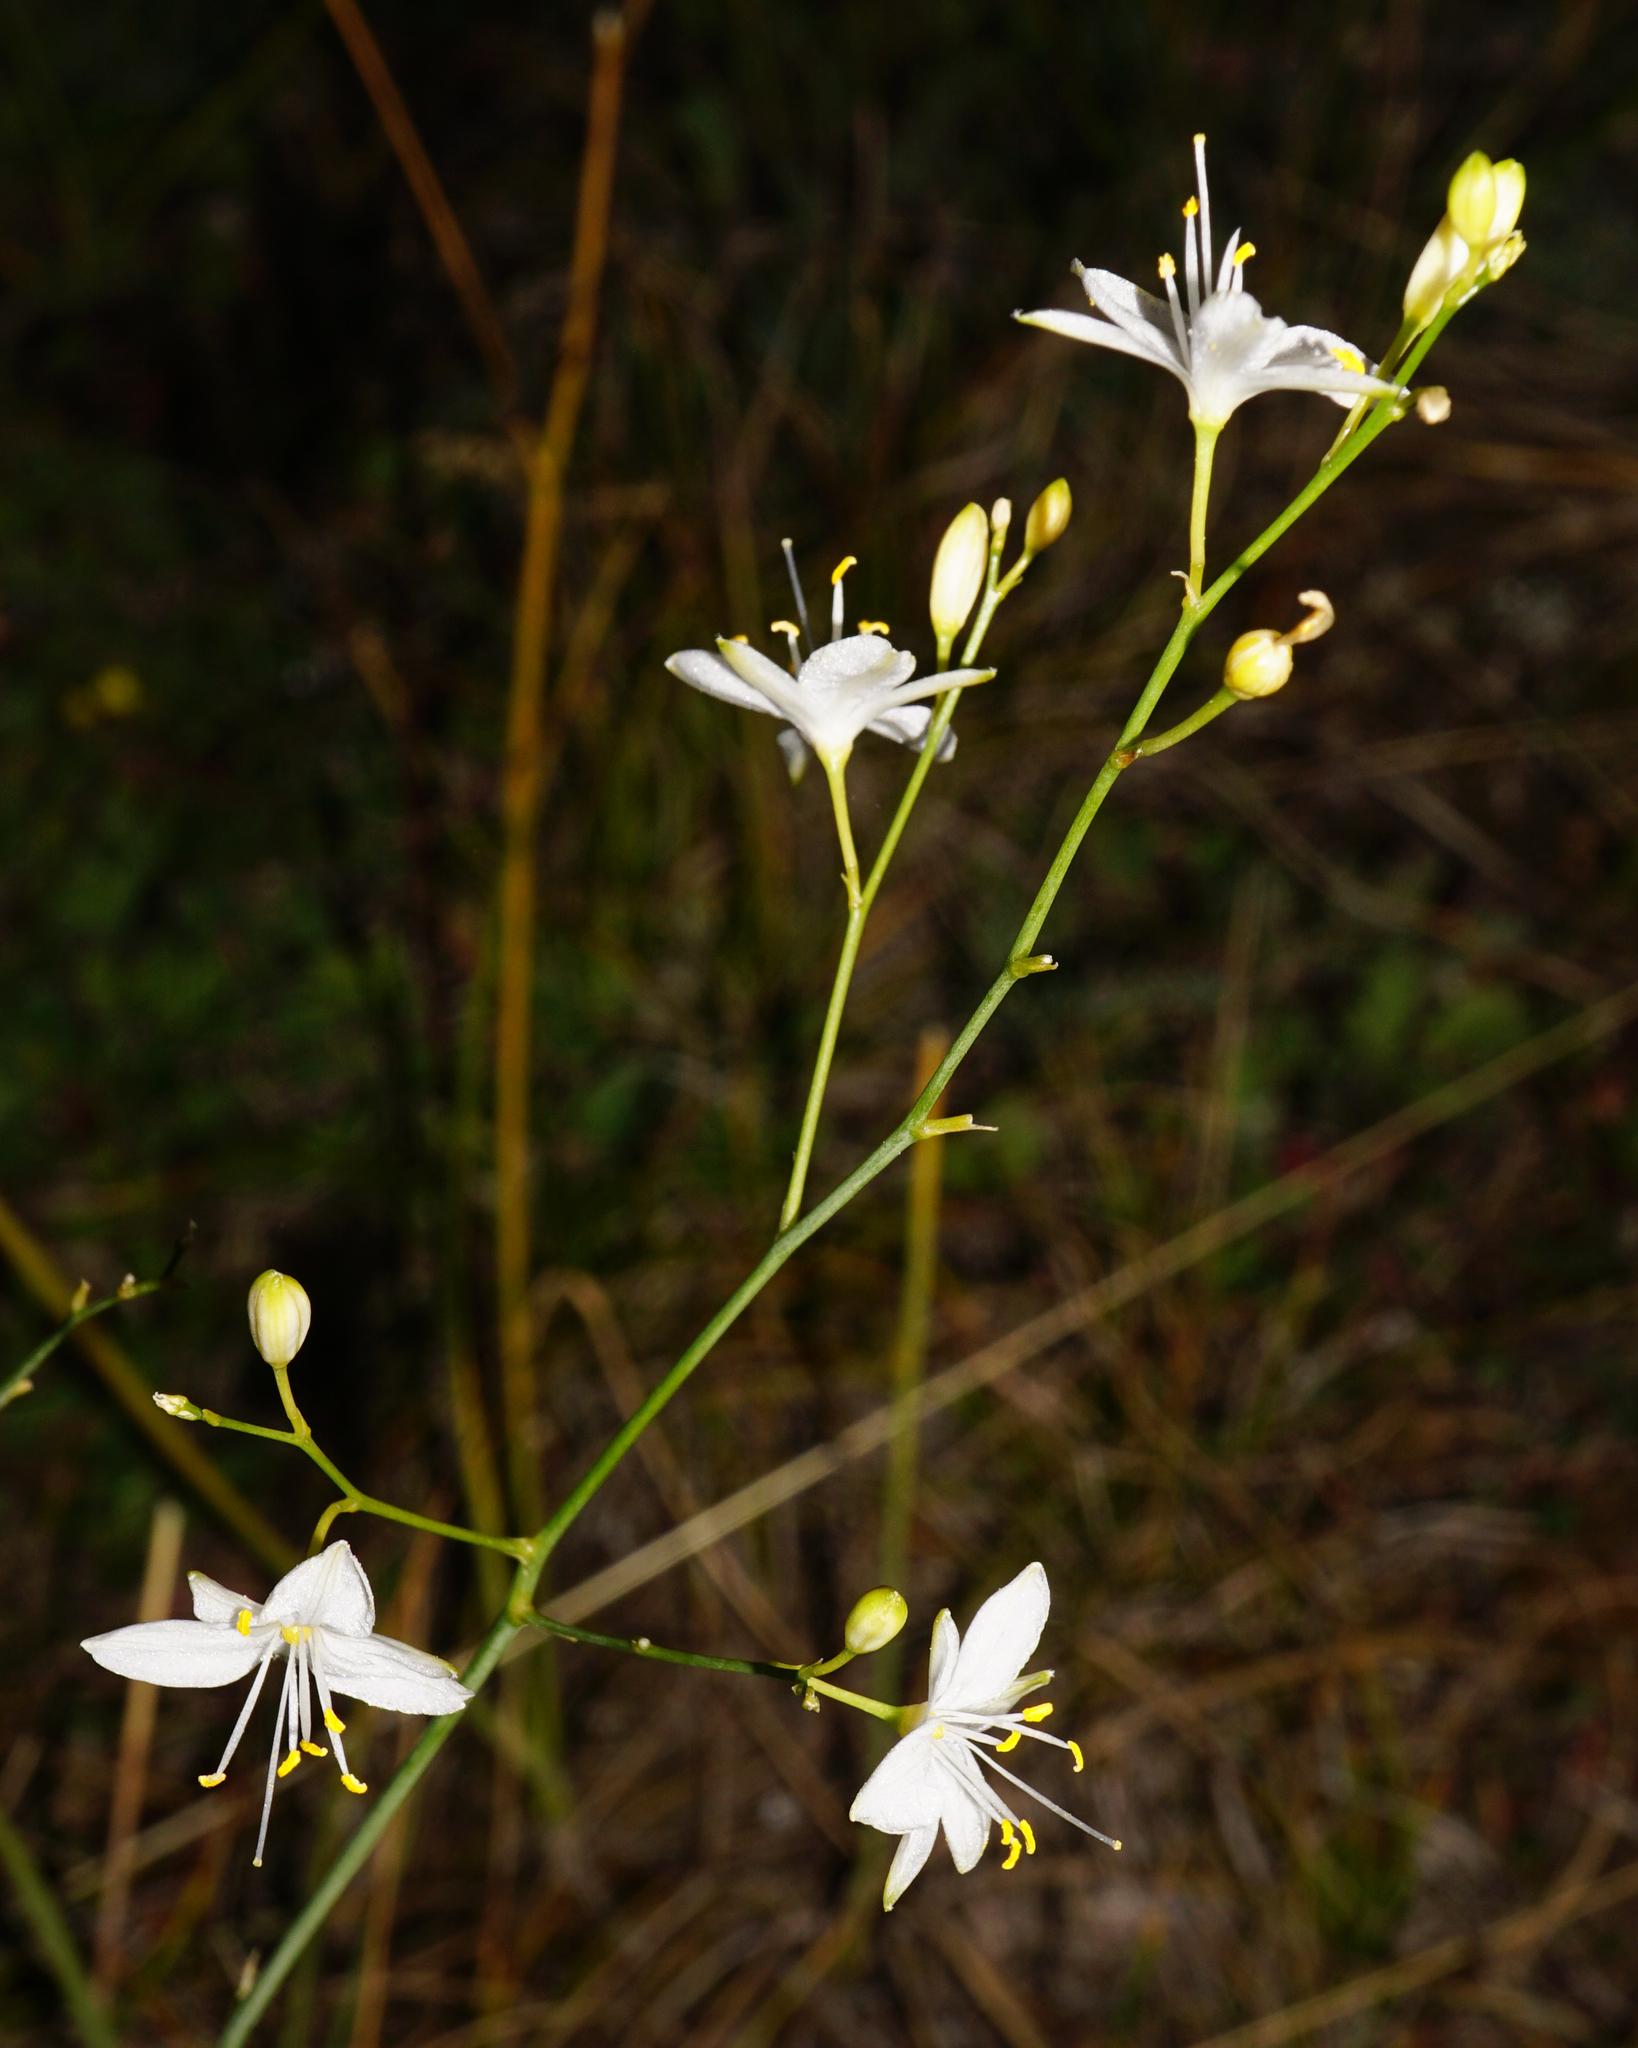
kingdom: Plantae
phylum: Tracheophyta
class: Liliopsida
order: Asparagales
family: Asparagaceae
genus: Anthericum
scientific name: Anthericum ramosum
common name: Branched st. bernard's-lily
